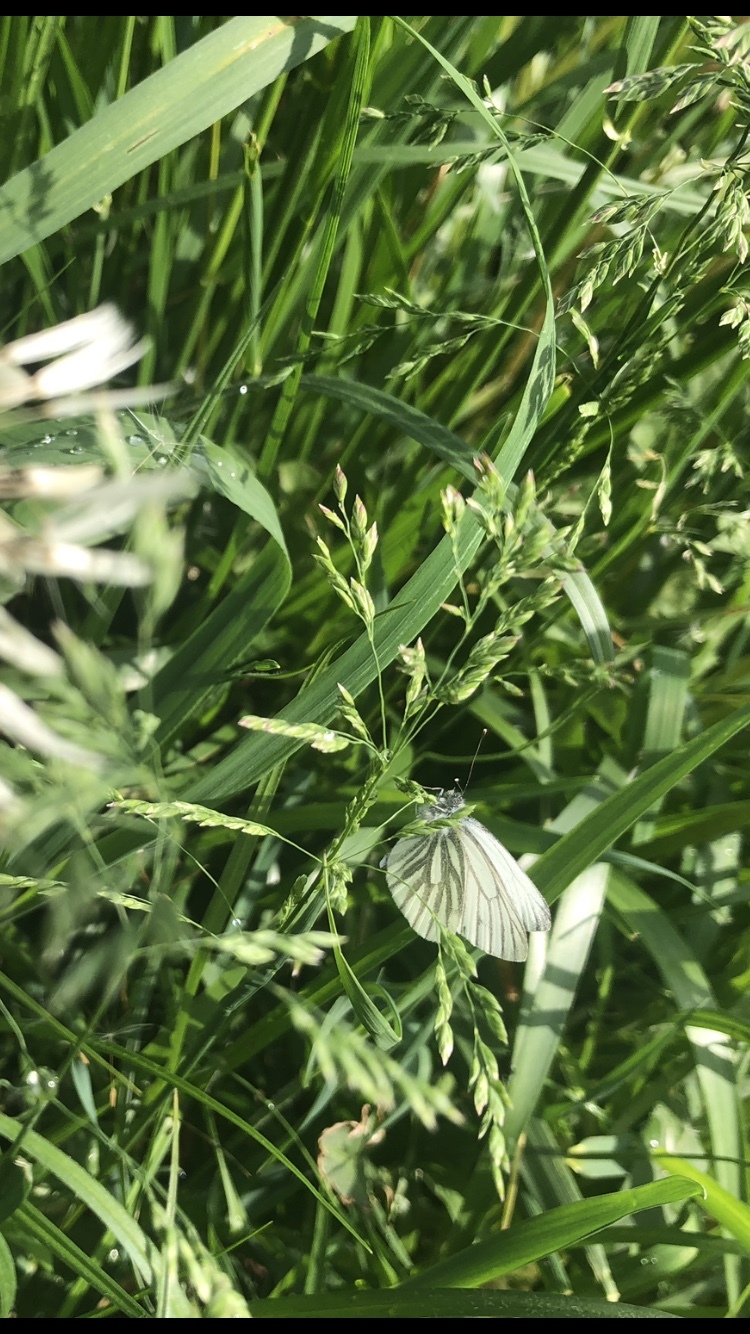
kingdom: Animalia
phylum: Arthropoda
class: Insecta
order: Lepidoptera
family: Pieridae
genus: Pieris
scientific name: Pieris napi
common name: Green-veined white
